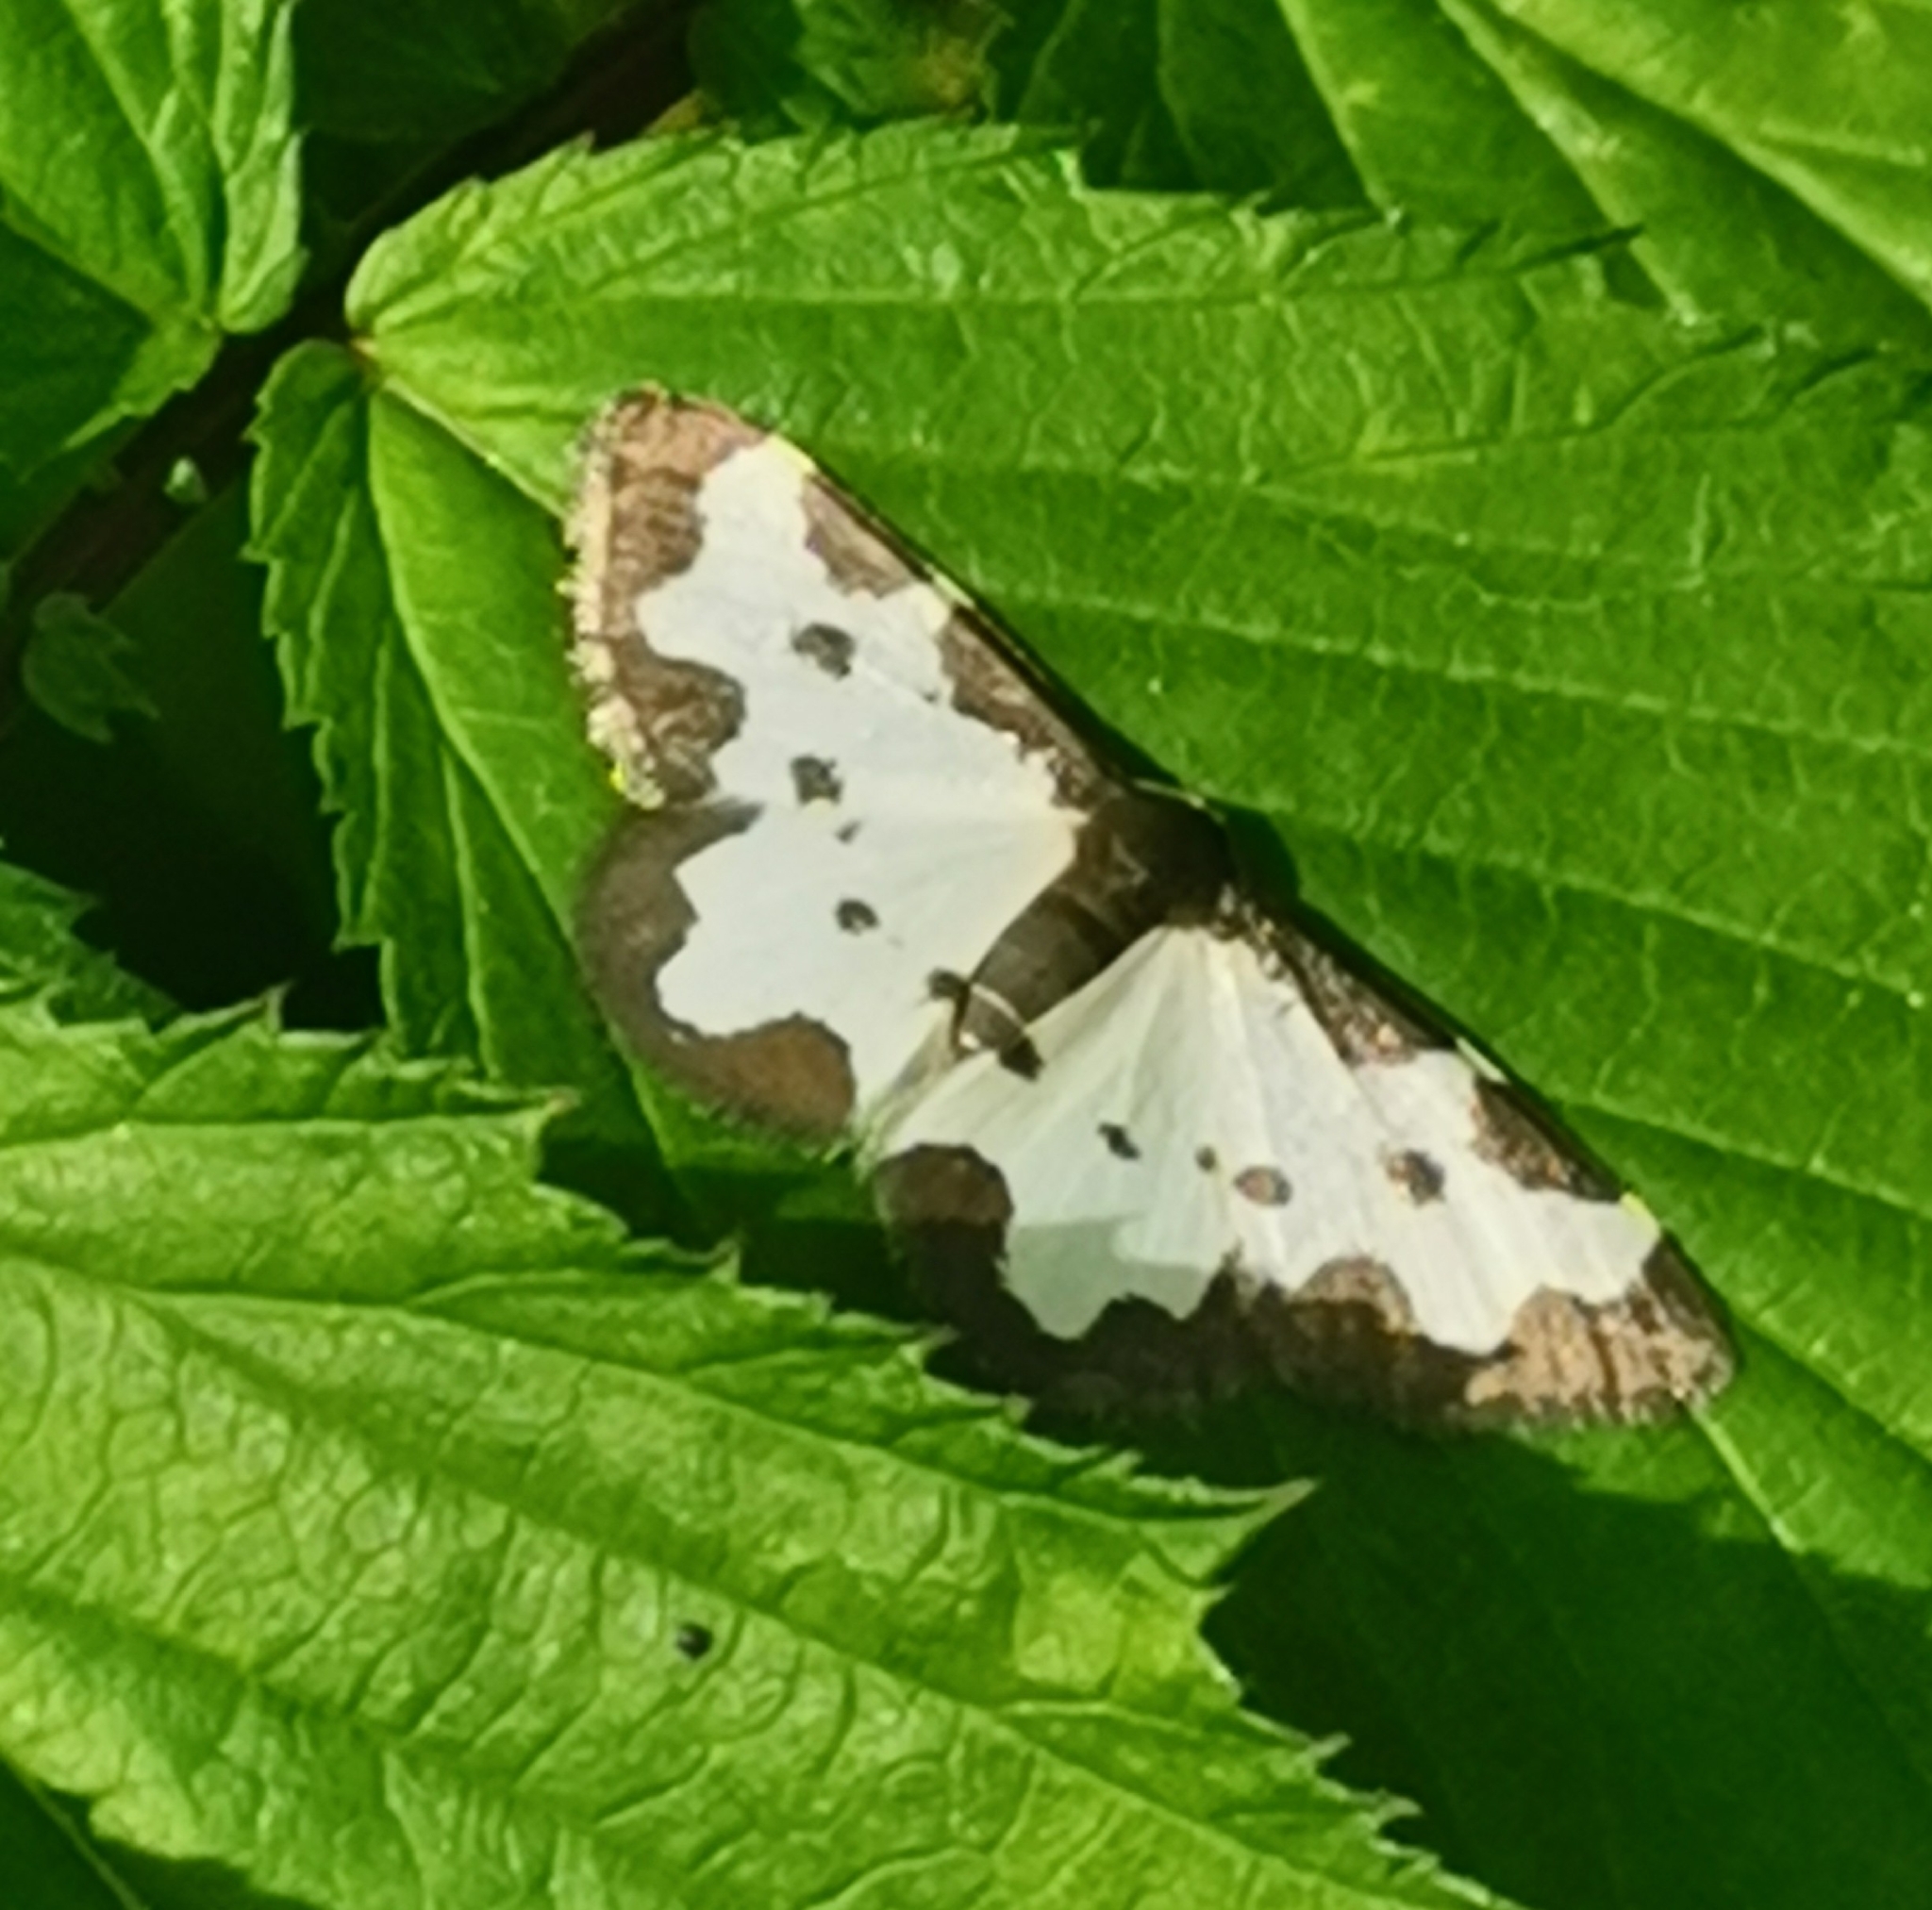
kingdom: Animalia
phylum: Arthropoda
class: Insecta
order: Lepidoptera
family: Geometridae
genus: Lomaspilis
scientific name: Lomaspilis marginata
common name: Clouded border
